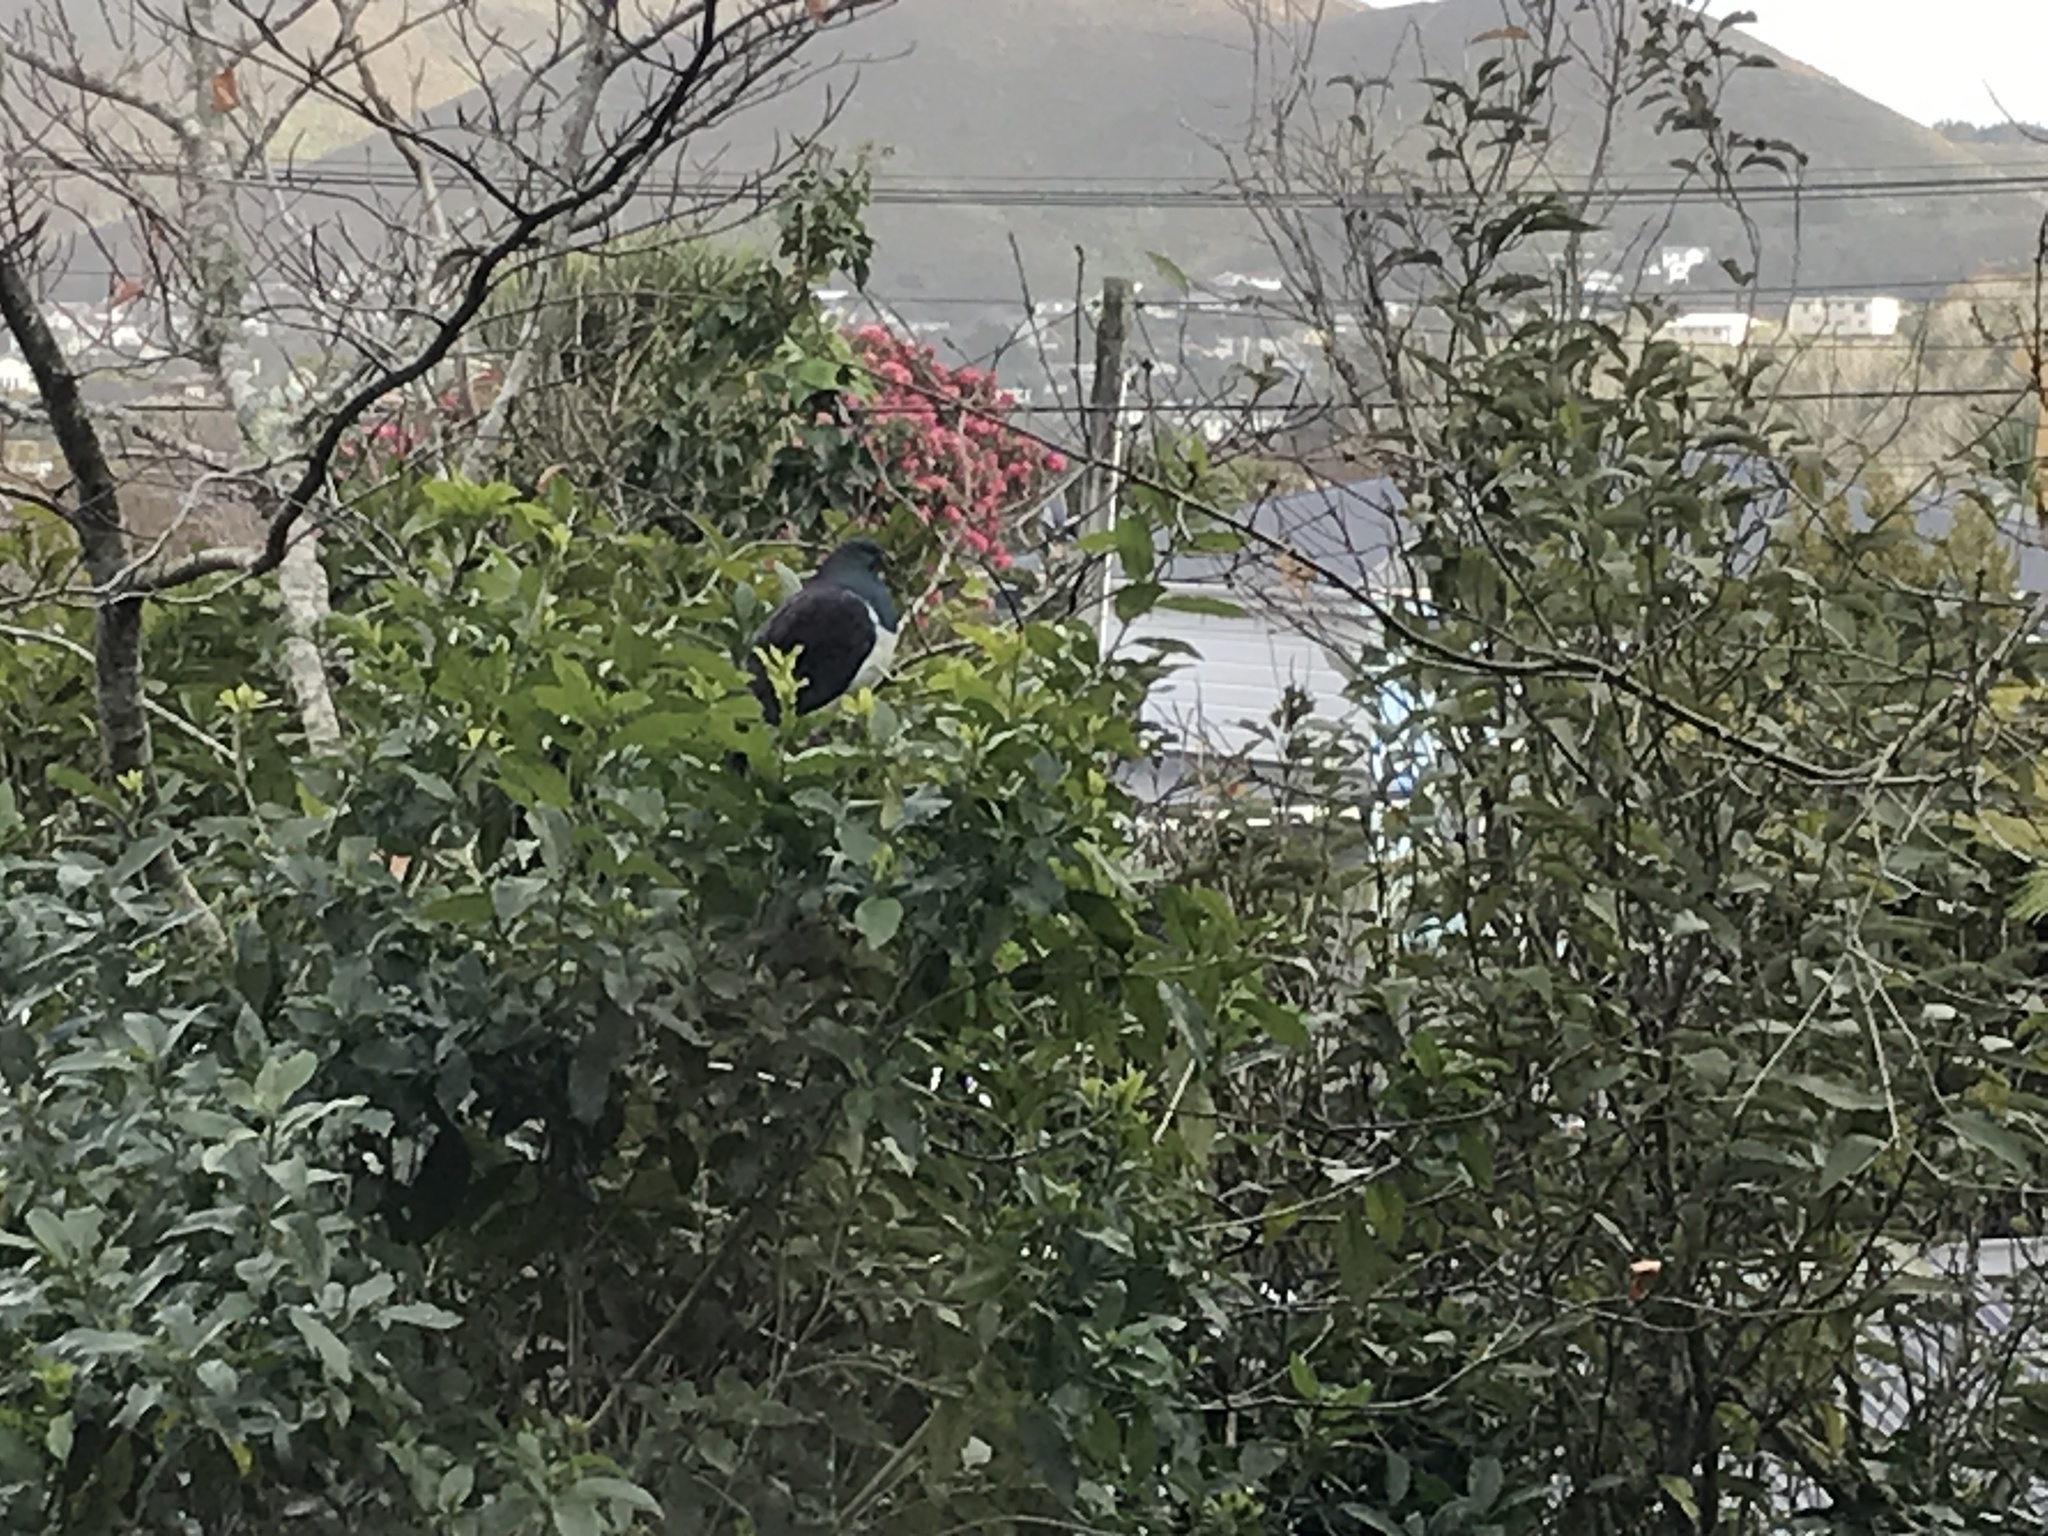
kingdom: Animalia
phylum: Chordata
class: Aves
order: Columbiformes
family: Columbidae
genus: Hemiphaga
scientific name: Hemiphaga novaeseelandiae
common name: New zealand pigeon
